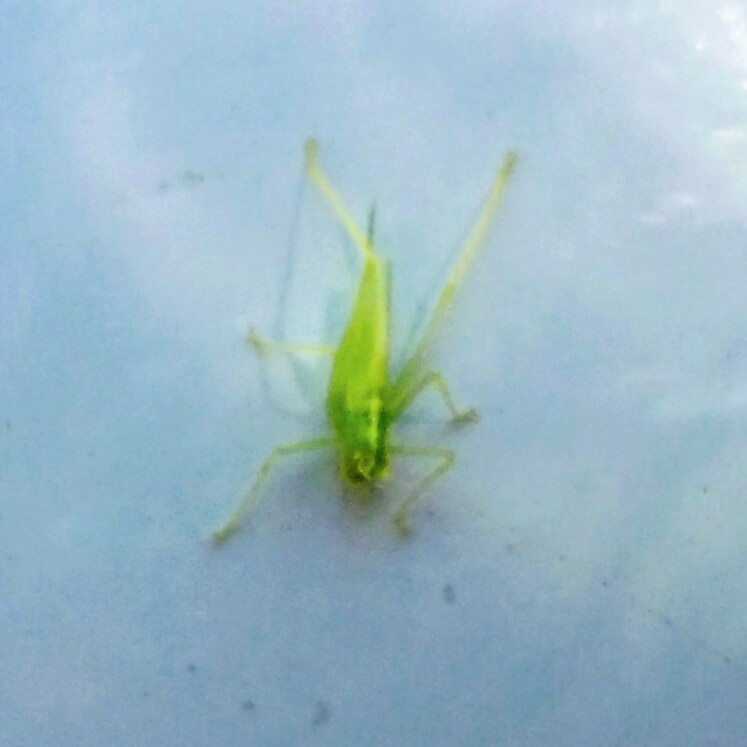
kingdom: Animalia
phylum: Arthropoda
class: Insecta
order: Orthoptera
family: Tettigoniidae
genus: Meconema
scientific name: Meconema thalassinum
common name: Oak bush-cricket
